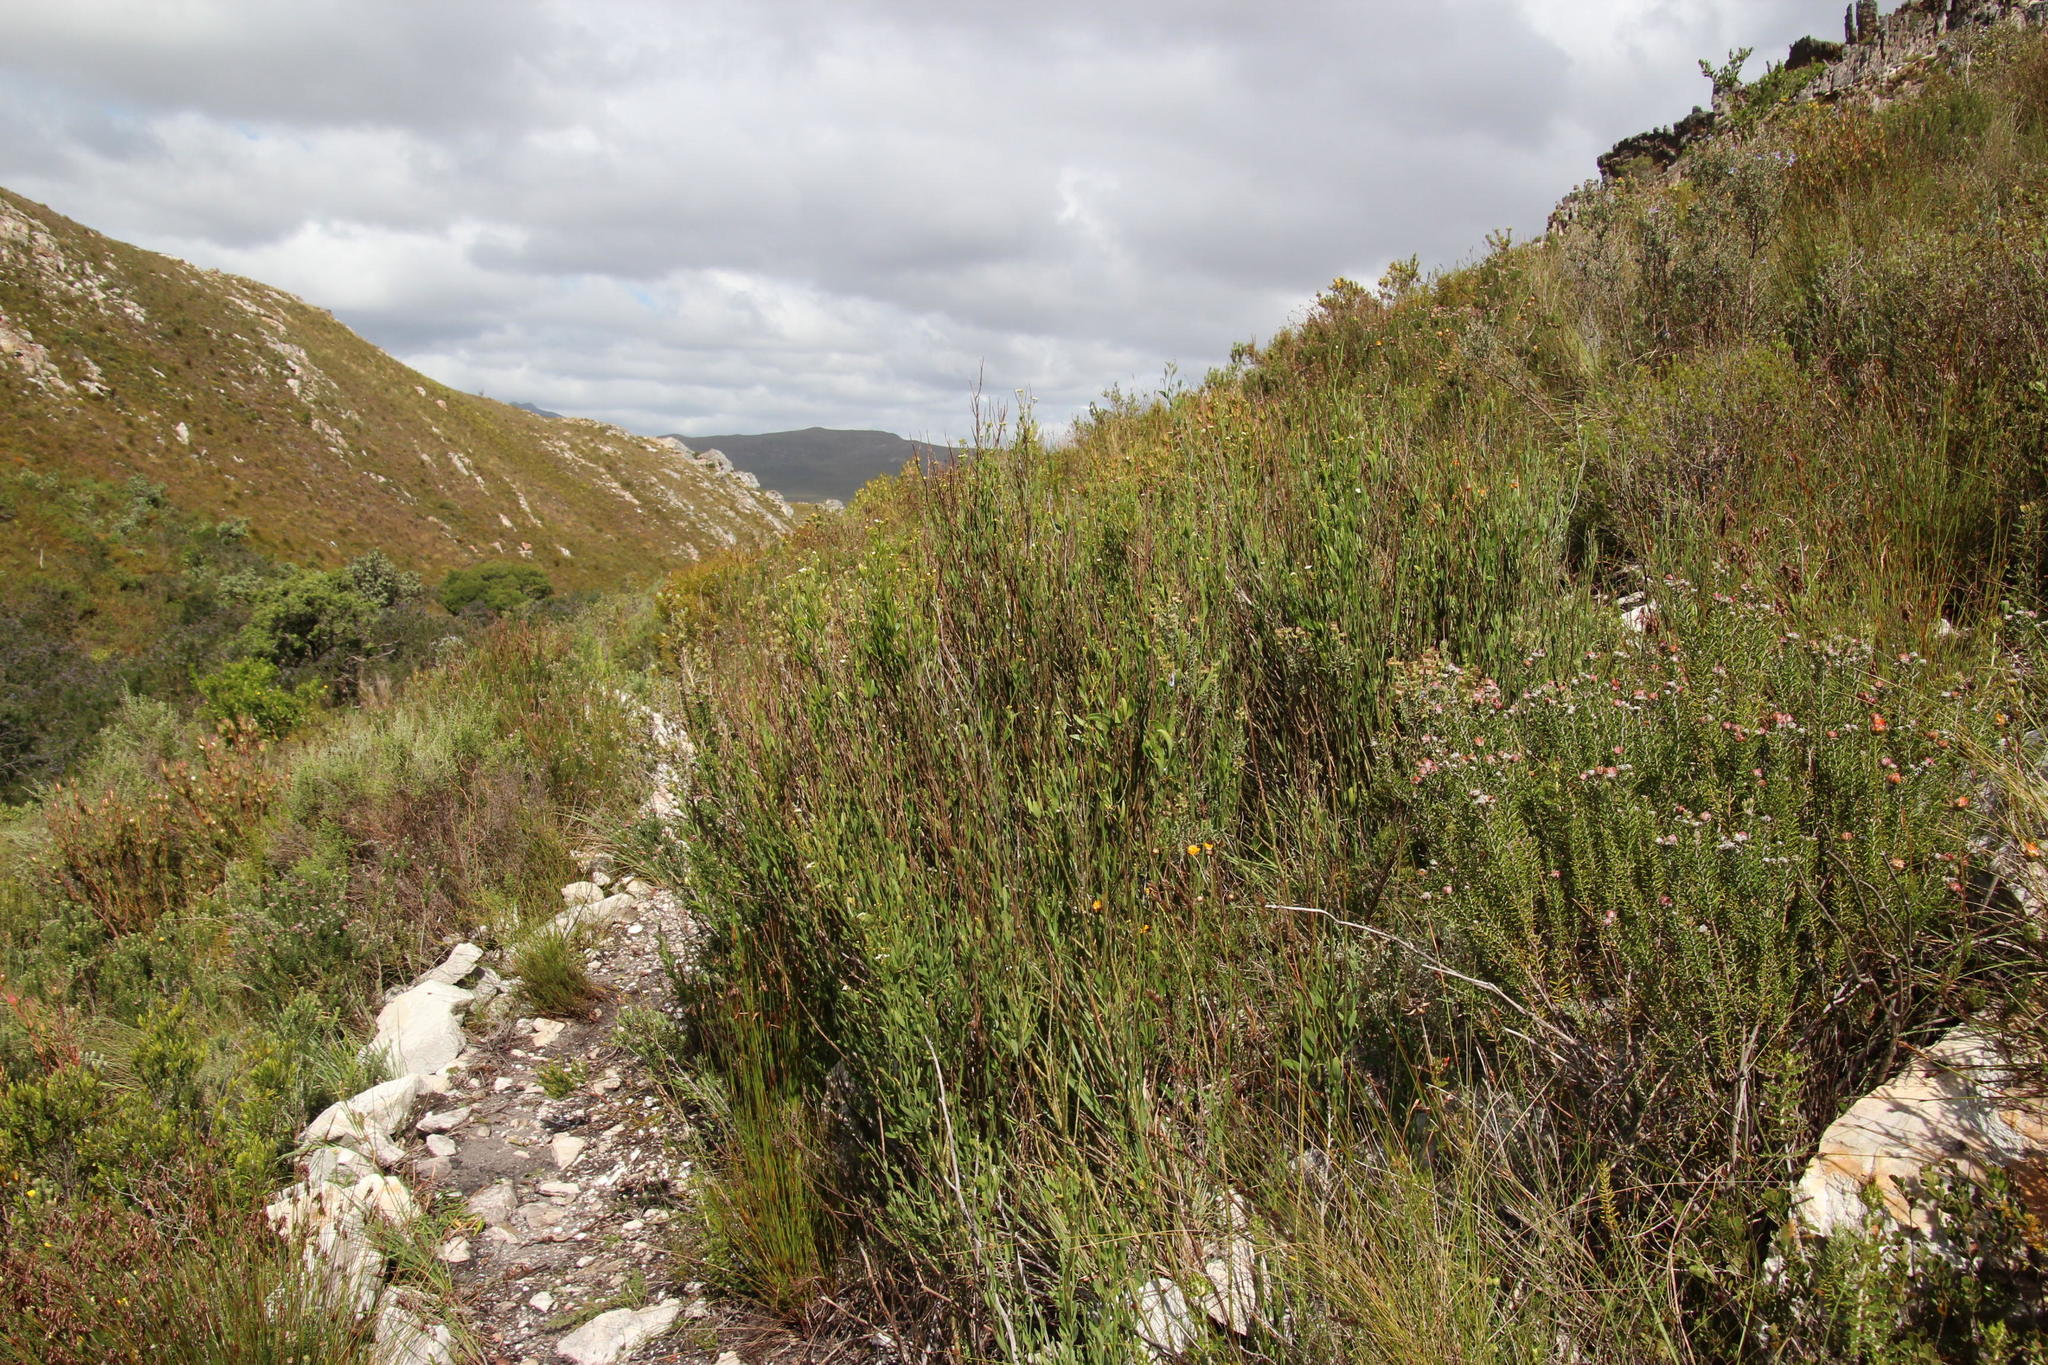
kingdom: Plantae
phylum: Tracheophyta
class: Magnoliopsida
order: Solanales
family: Montiniaceae
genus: Montinia
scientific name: Montinia caryophyllacea
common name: Wild clove-bush
